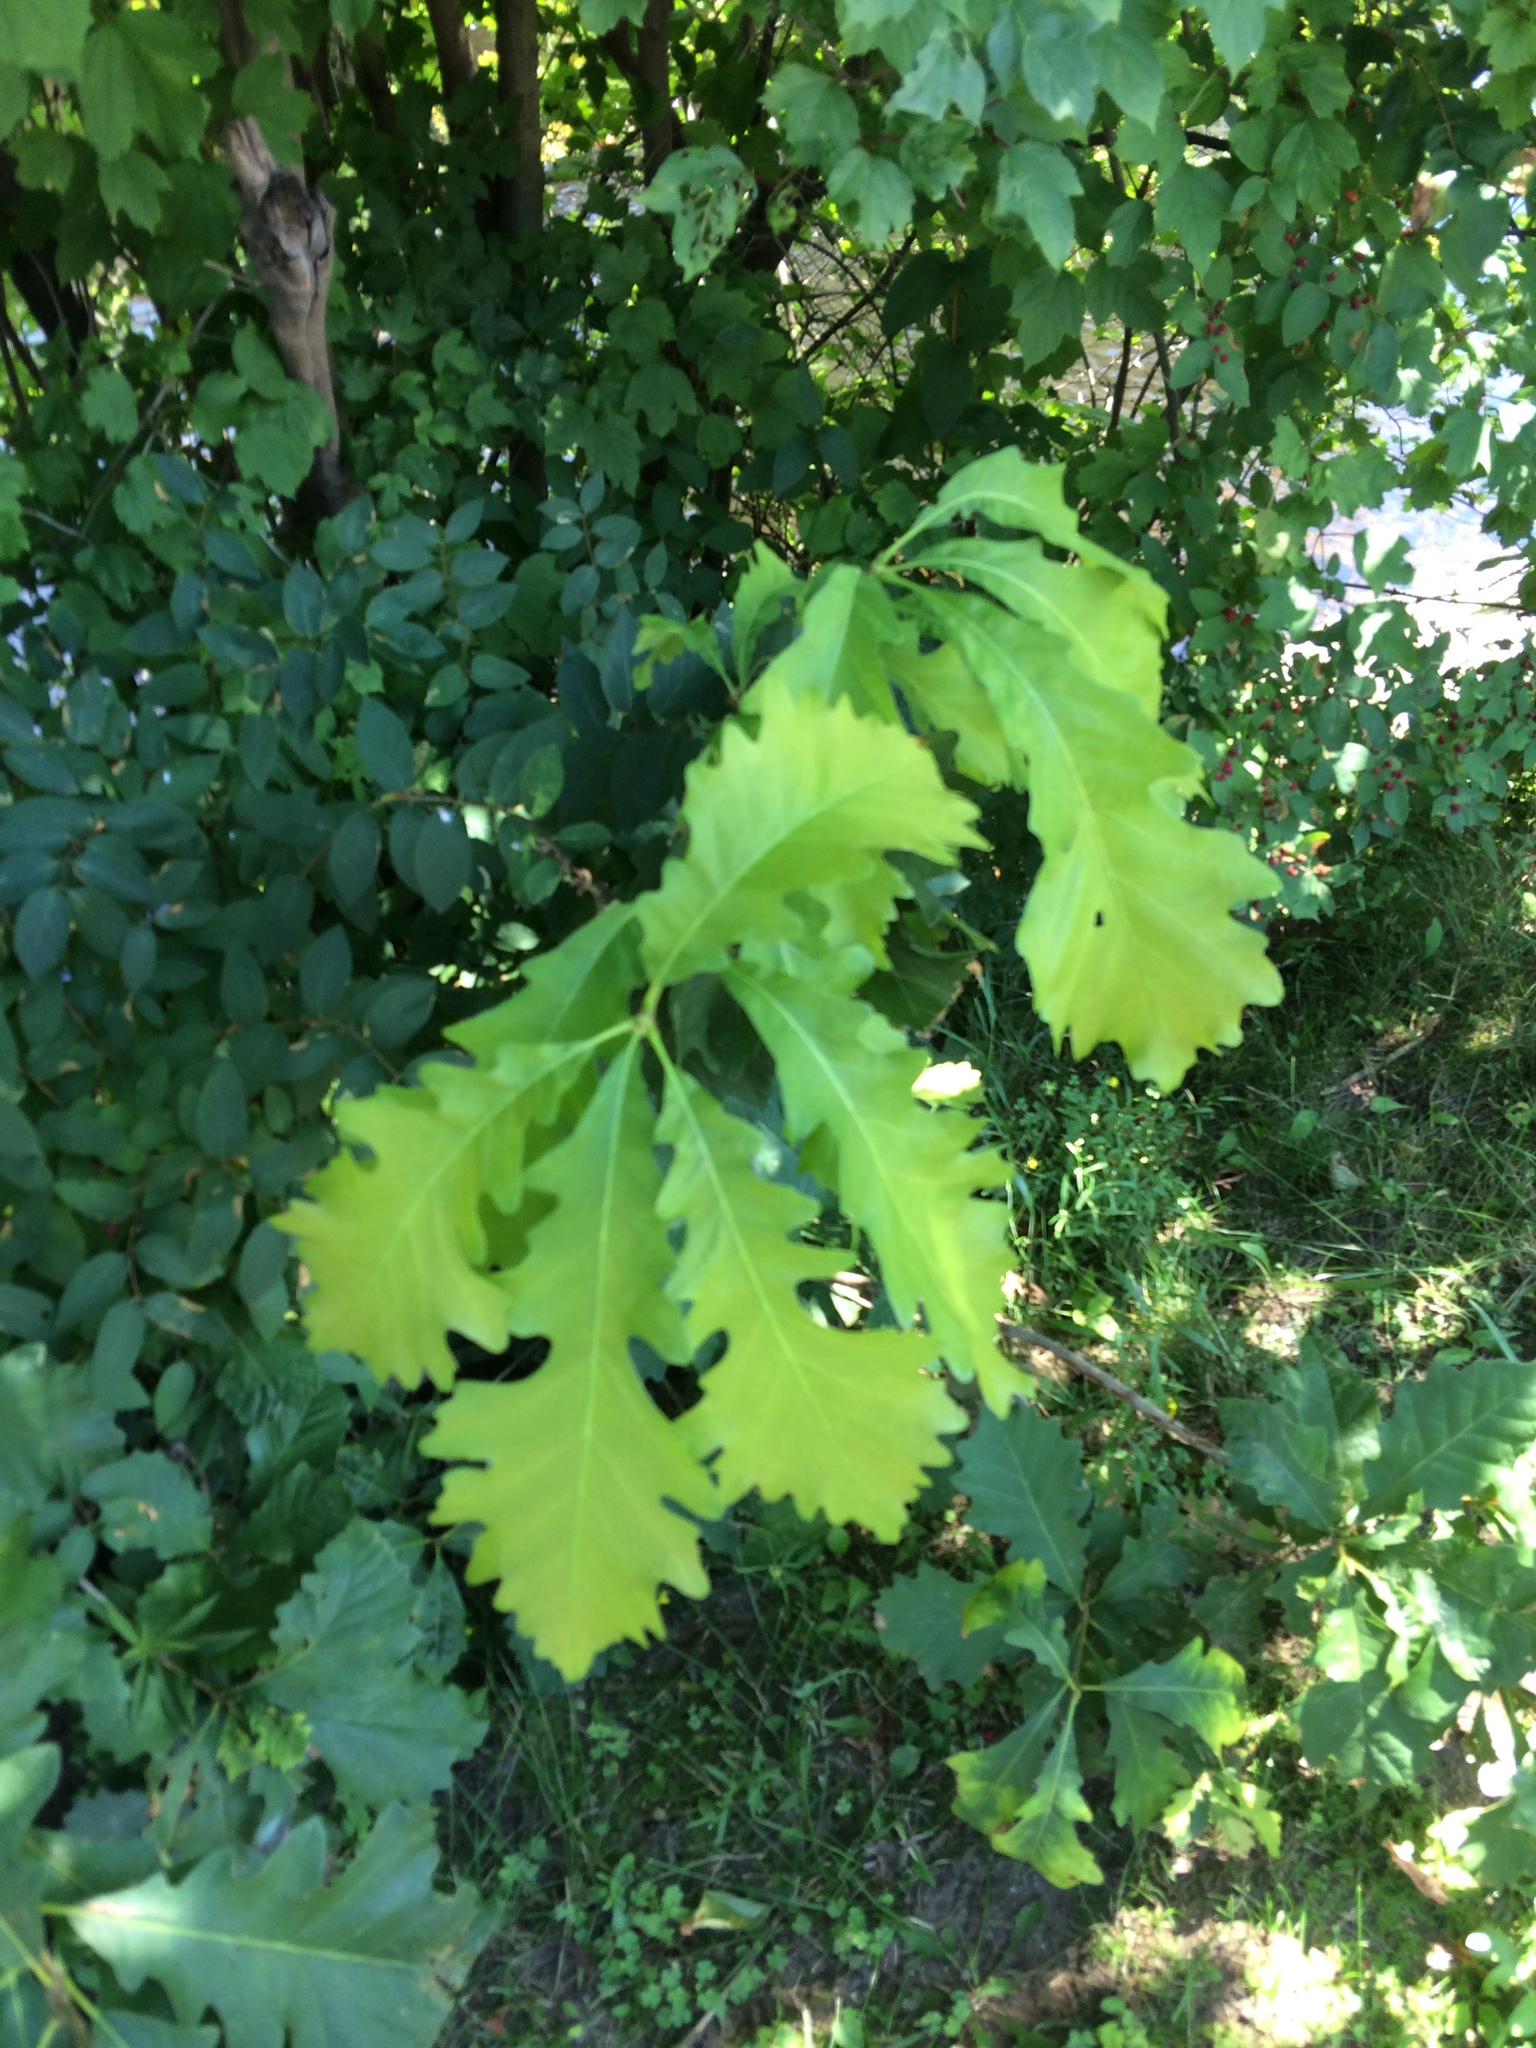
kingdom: Plantae
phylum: Tracheophyta
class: Magnoliopsida
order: Fagales
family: Fagaceae
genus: Quercus
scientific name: Quercus macrocarpa
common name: Bur oak
